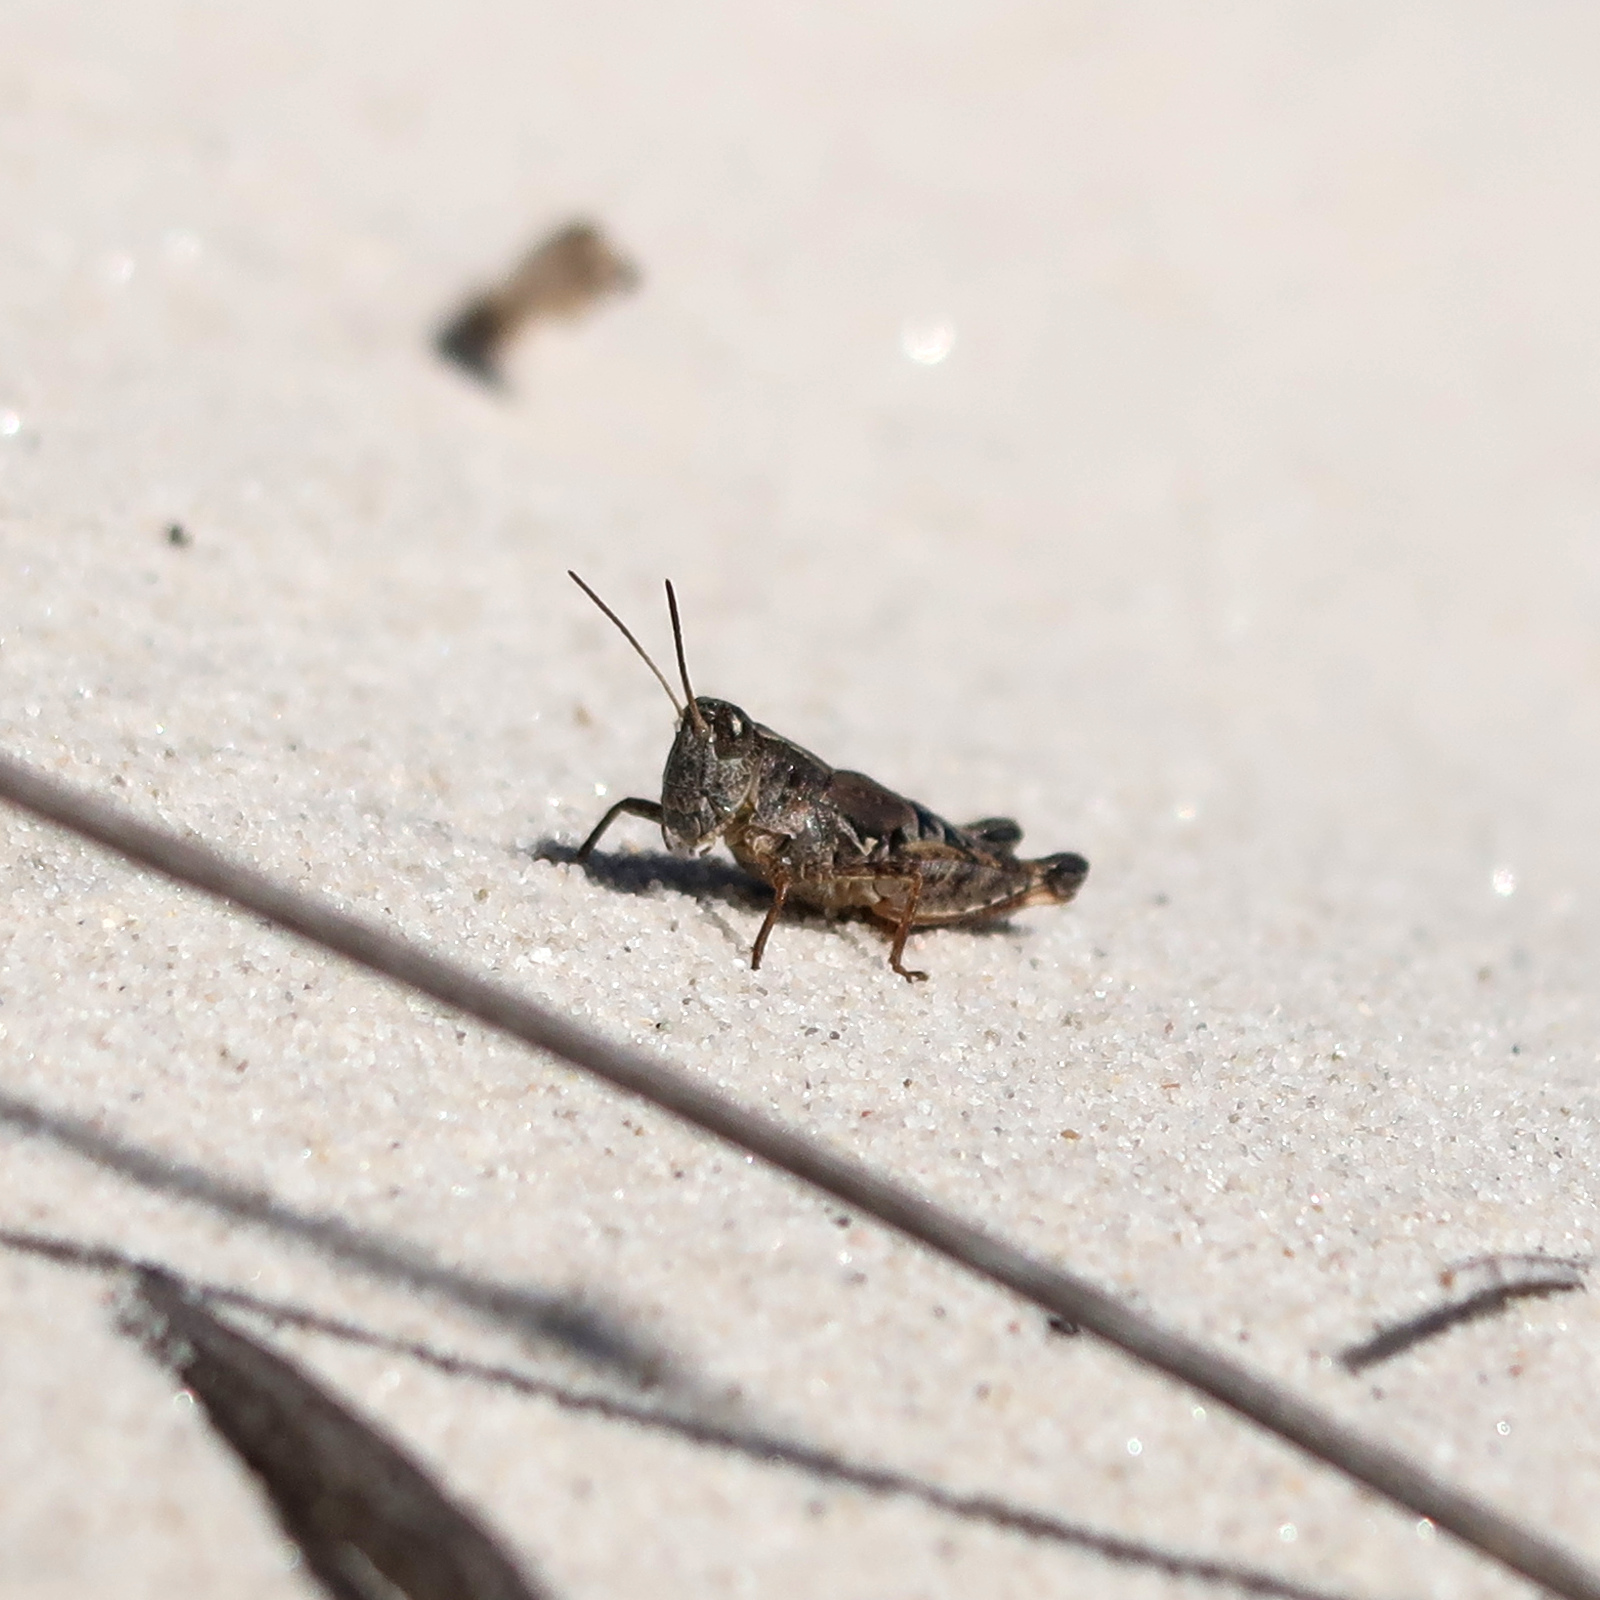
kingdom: Animalia
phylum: Arthropoda
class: Insecta
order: Orthoptera
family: Acrididae
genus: Phaulacridium
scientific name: Phaulacridium vittatum
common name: Wingless grasshopper
